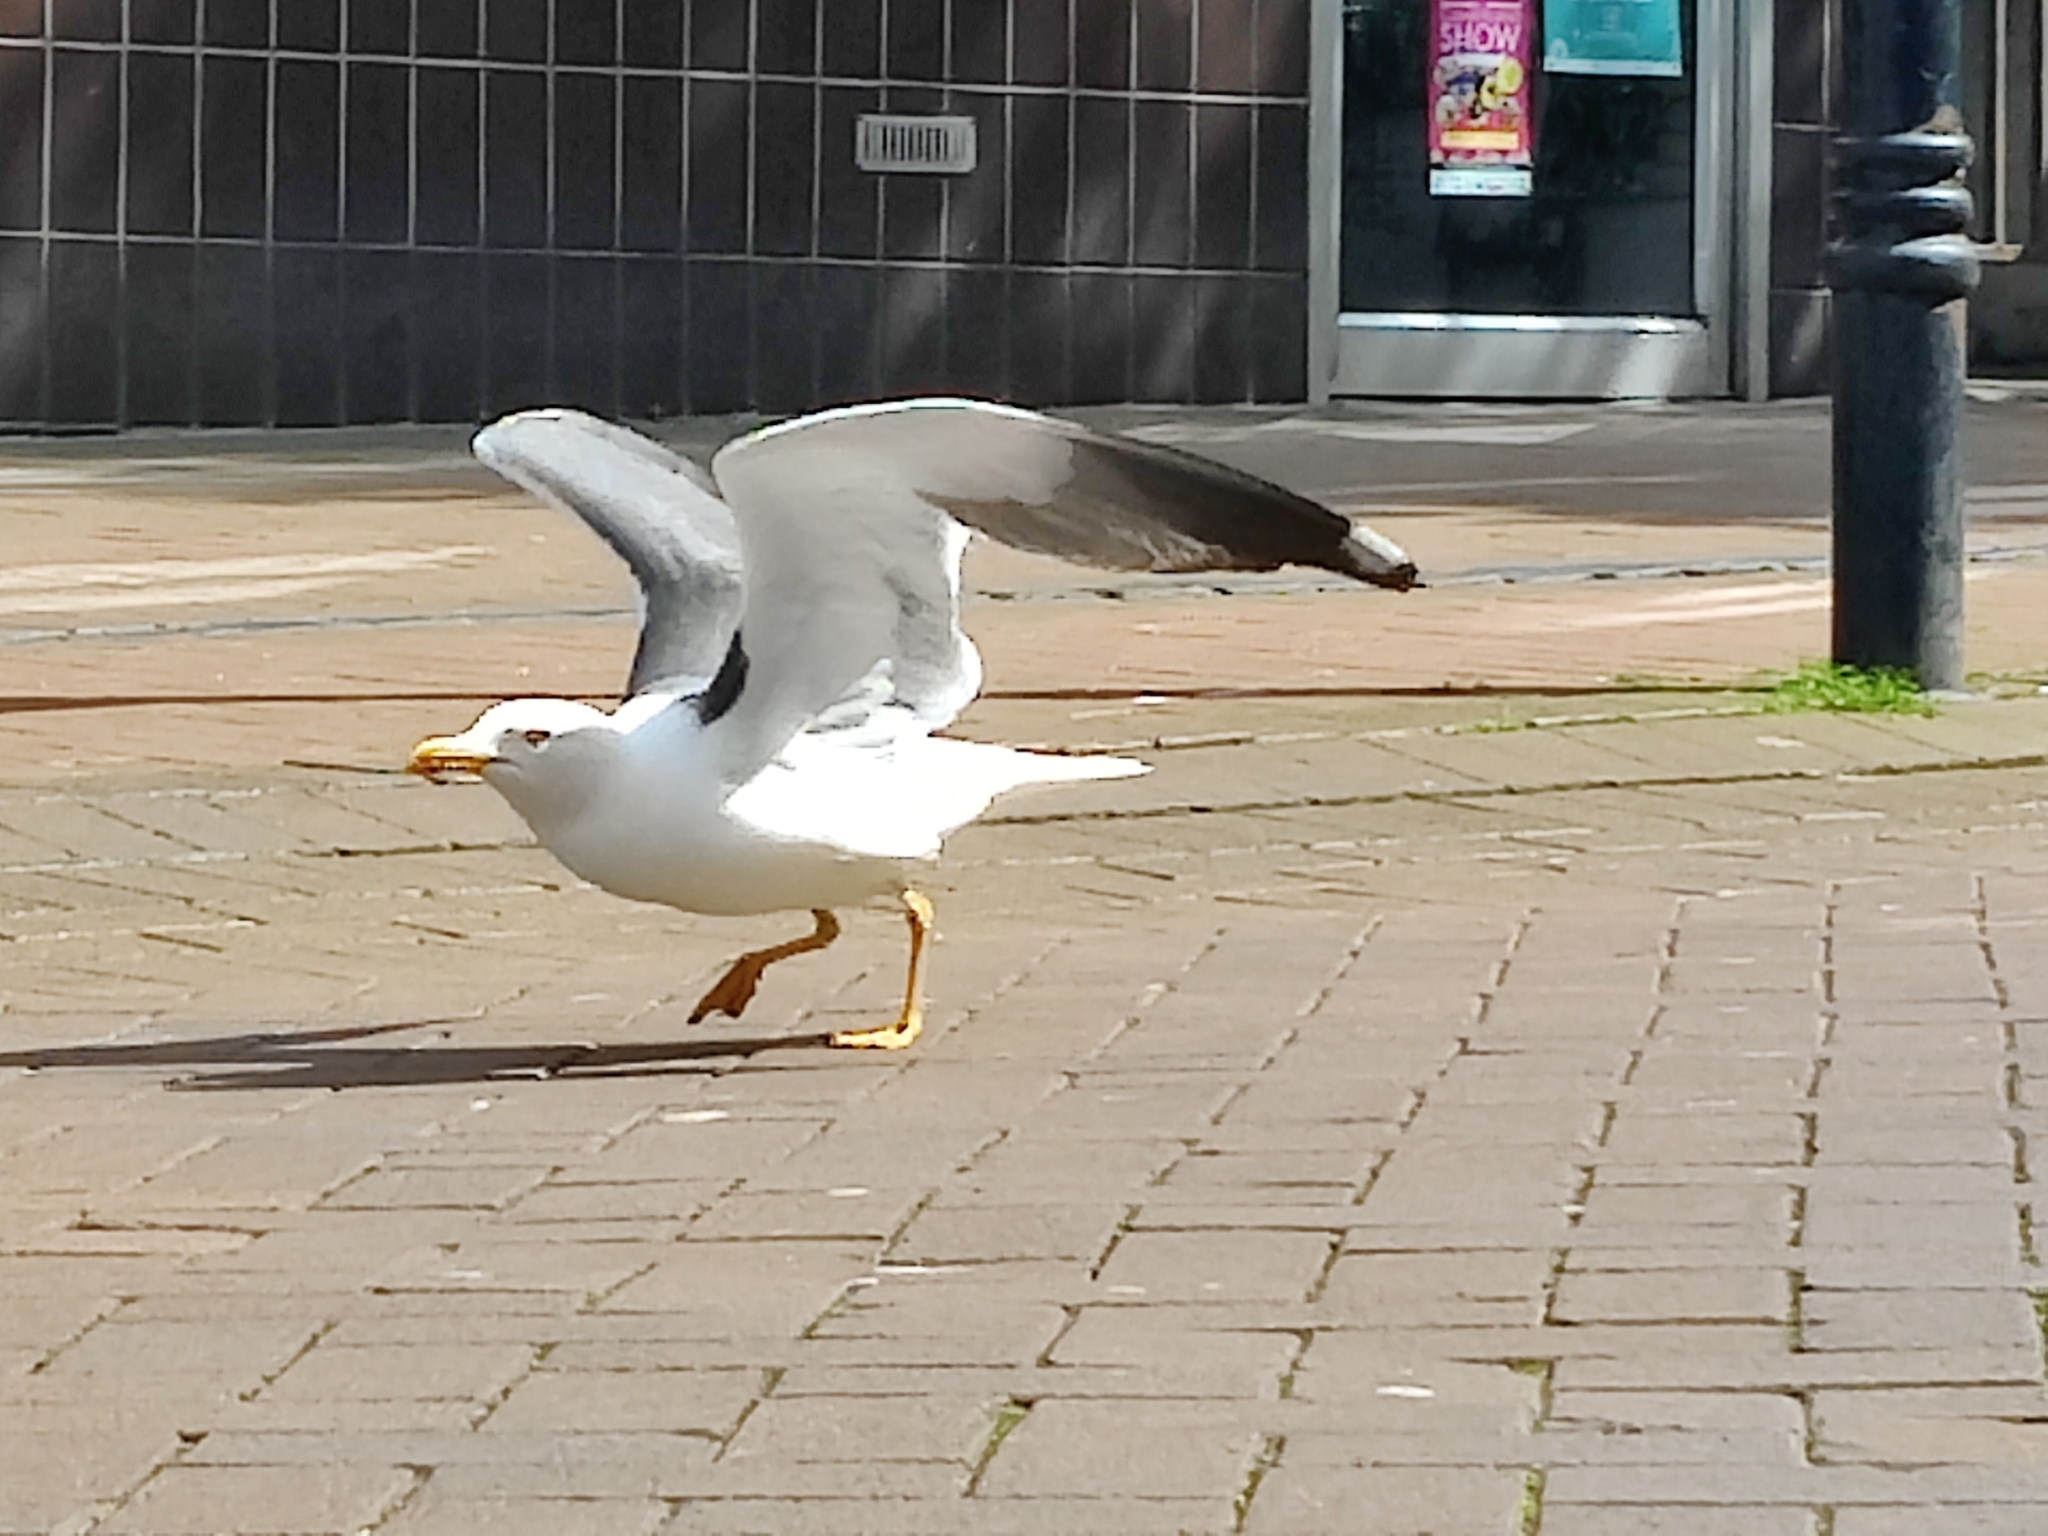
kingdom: Animalia
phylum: Chordata
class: Aves
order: Charadriiformes
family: Laridae
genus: Larus
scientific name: Larus fuscus
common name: Lesser black-backed gull
